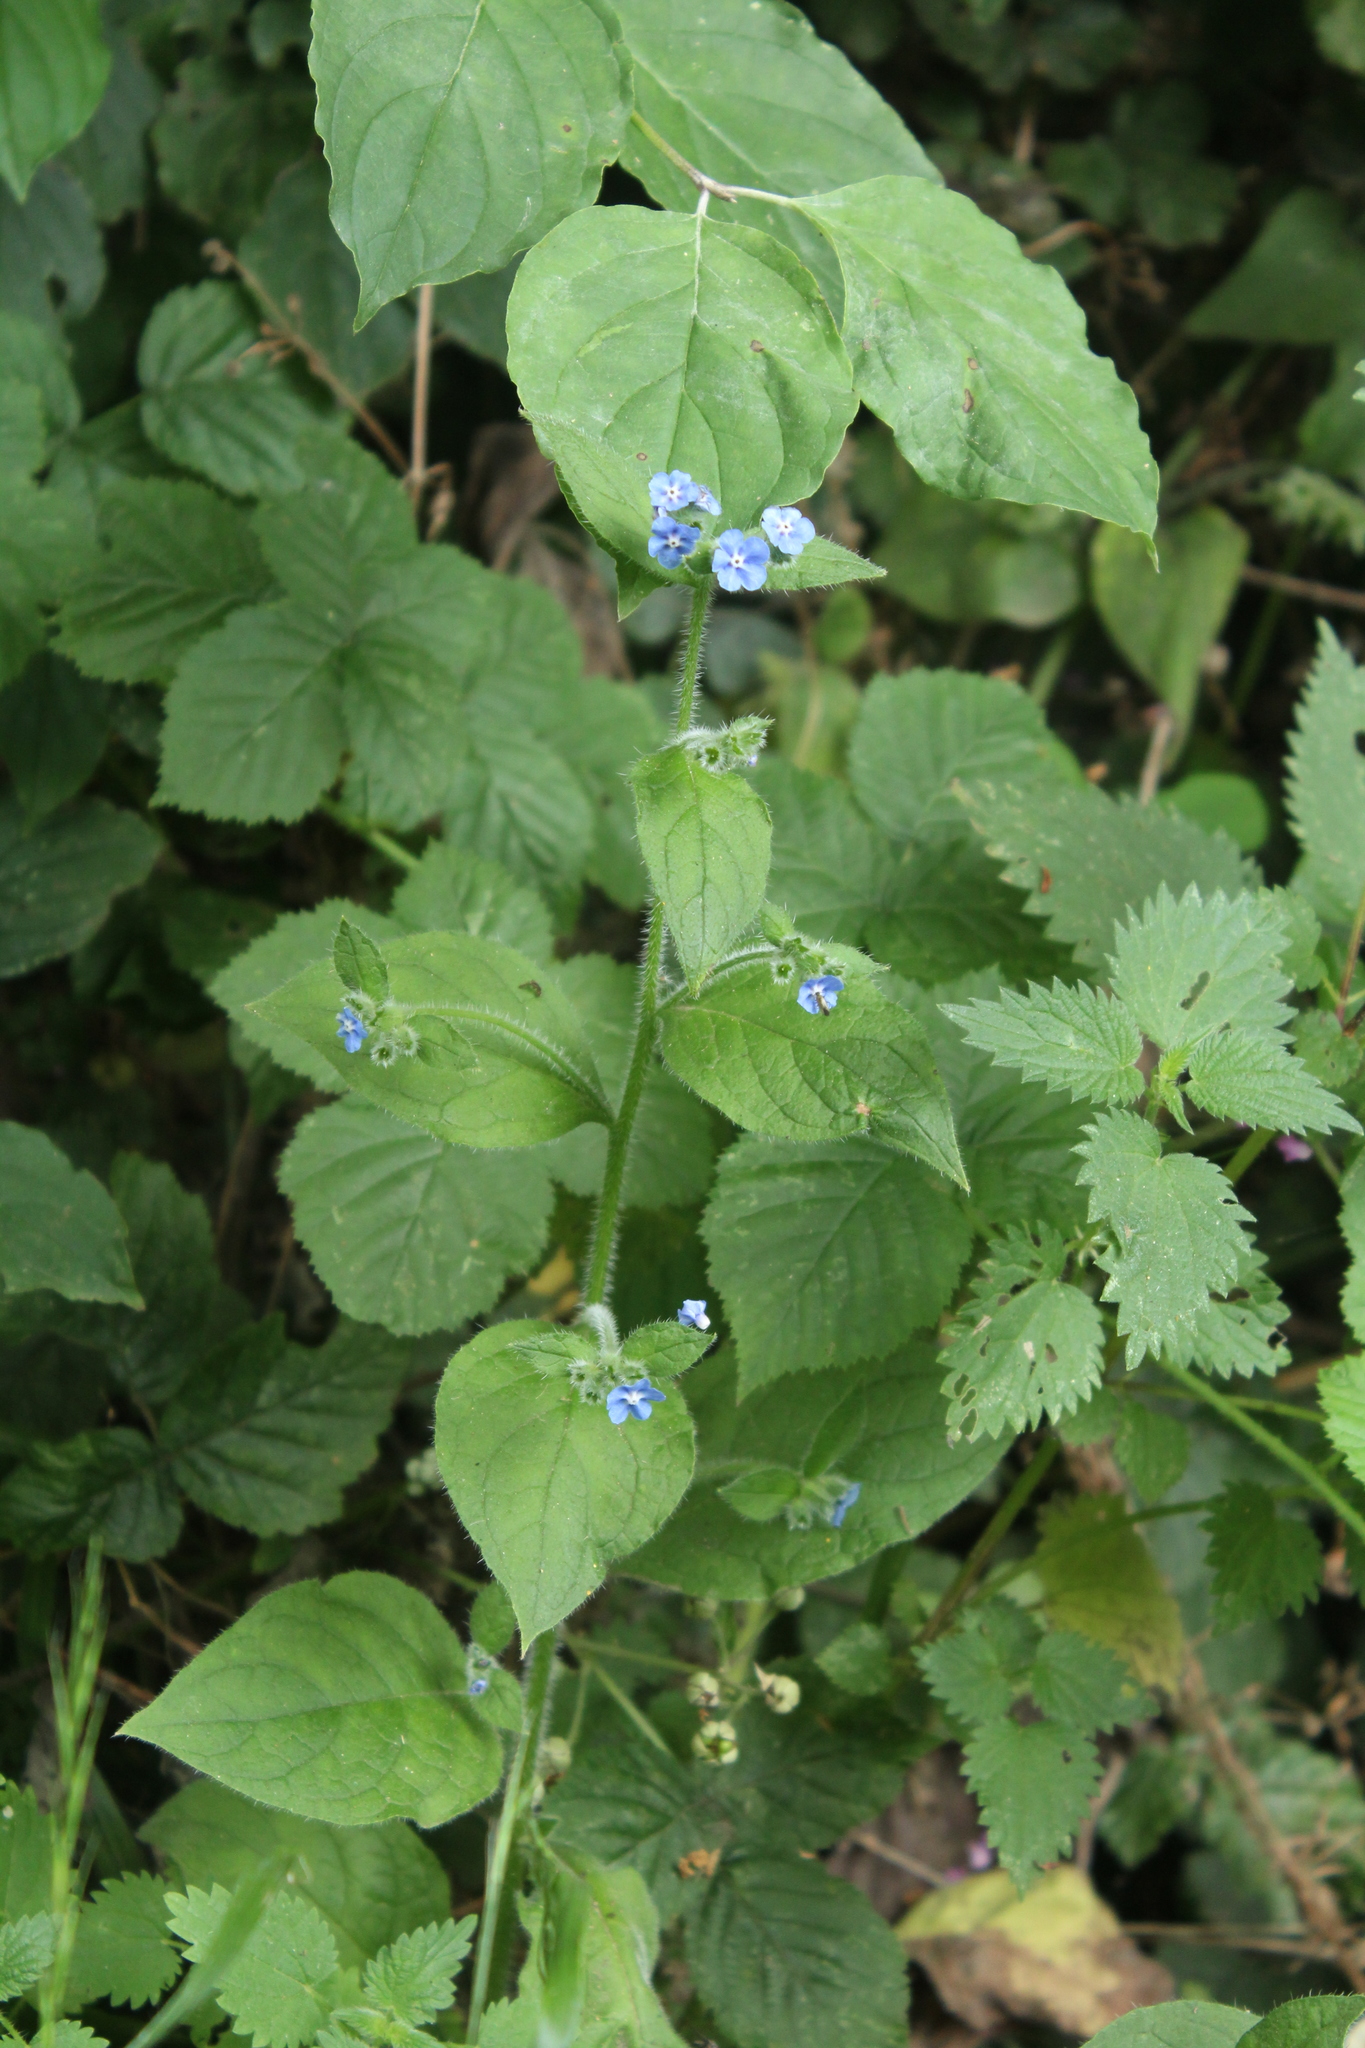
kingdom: Plantae
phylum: Tracheophyta
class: Magnoliopsida
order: Boraginales
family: Boraginaceae
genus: Pentaglottis
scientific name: Pentaglottis sempervirens
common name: Green alkanet
